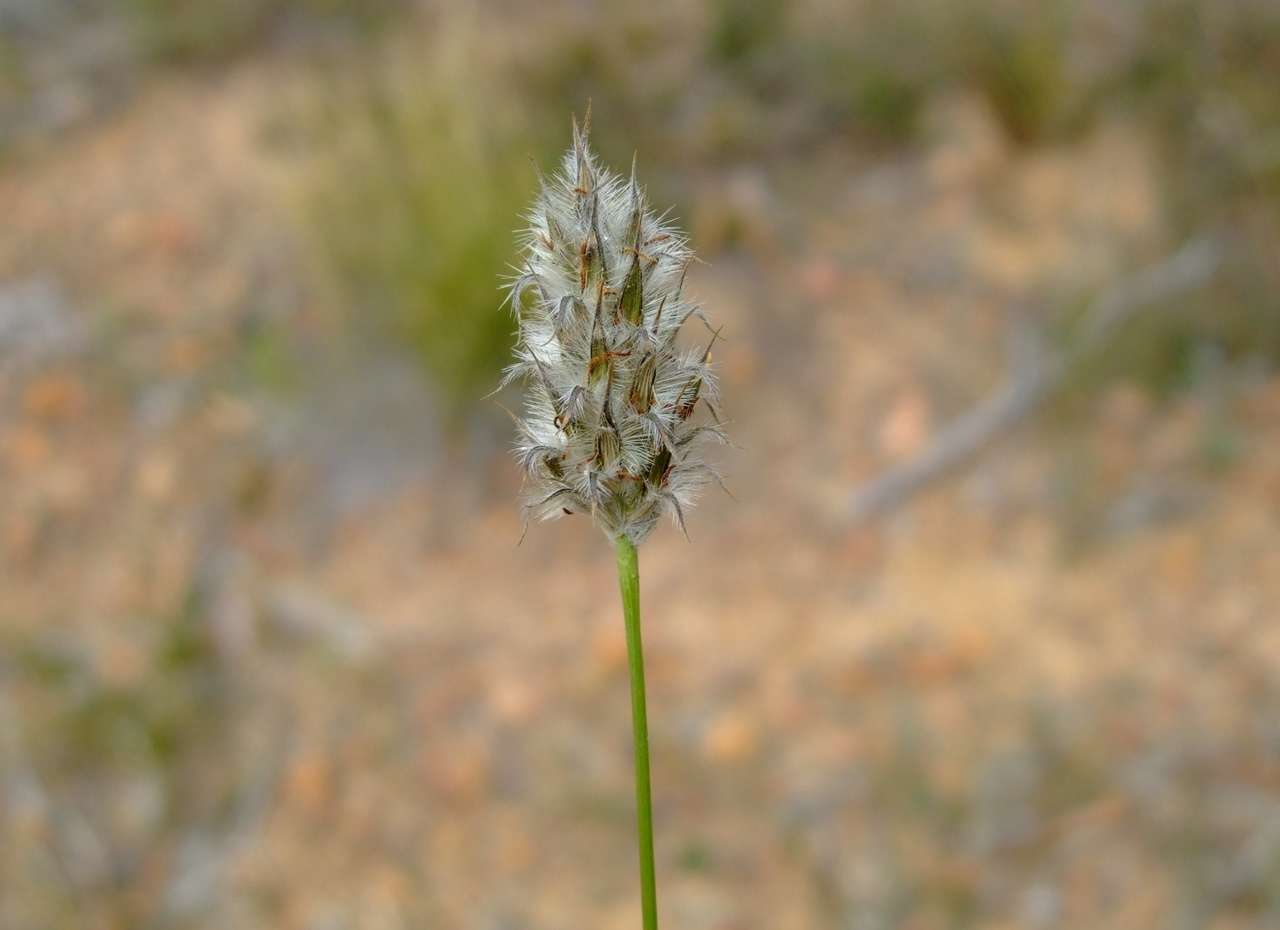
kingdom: Plantae
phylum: Tracheophyta
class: Liliopsida
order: Poales
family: Poaceae
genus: Neurachne
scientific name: Neurachne alopecuroidea
